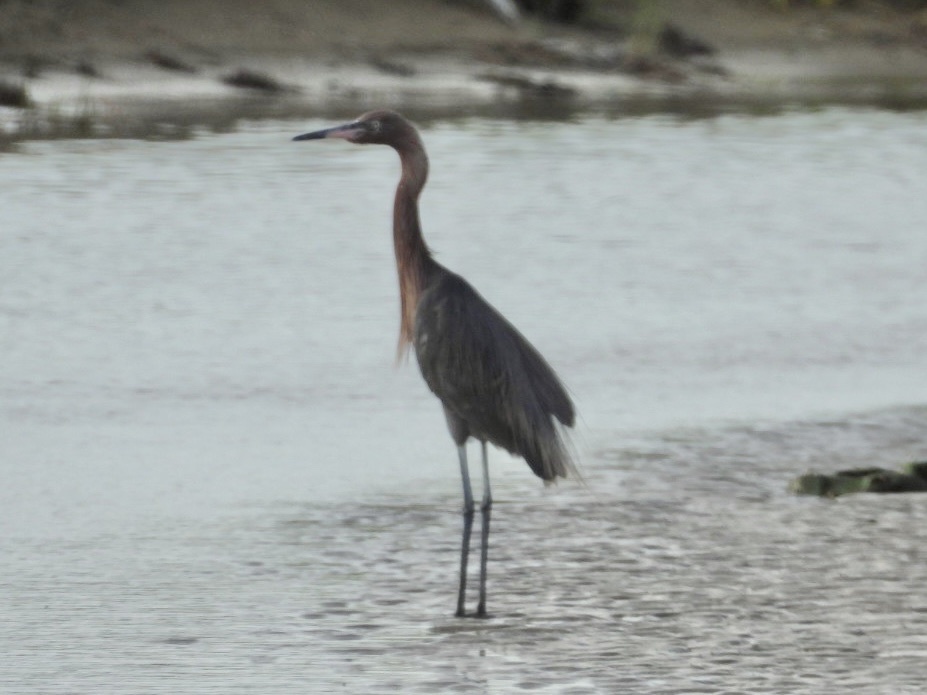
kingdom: Animalia
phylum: Chordata
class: Aves
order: Pelecaniformes
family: Ardeidae
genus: Egretta
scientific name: Egretta rufescens
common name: Reddish egret
